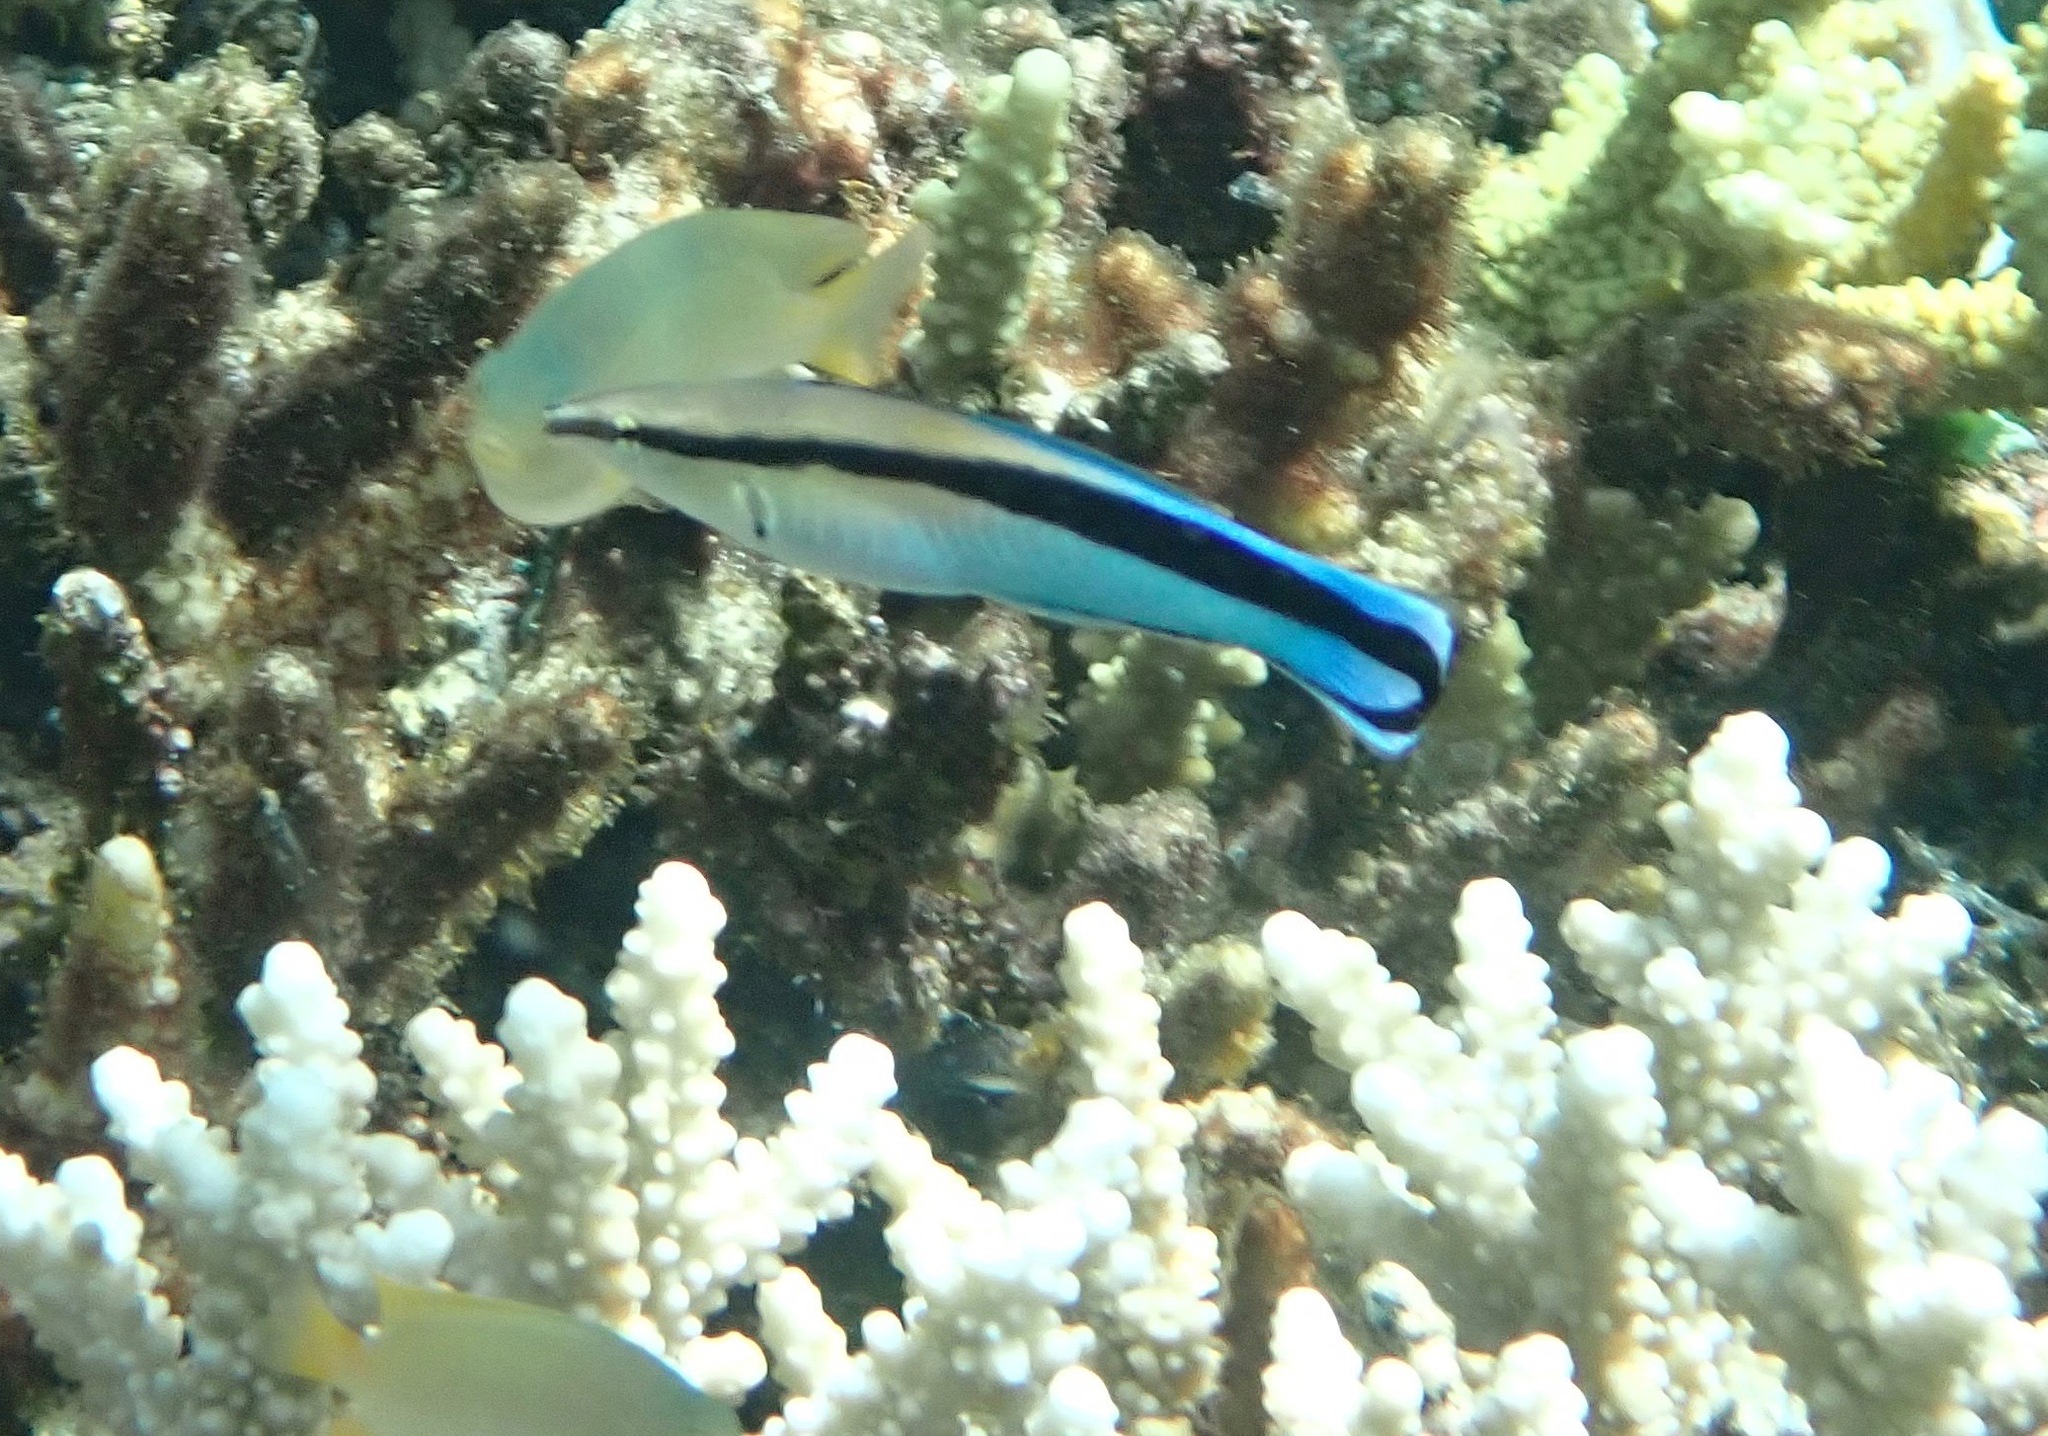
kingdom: Animalia
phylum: Chordata
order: Perciformes
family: Labridae
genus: Labroides
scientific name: Labroides dimidiatus
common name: Blue diesel wrasse
